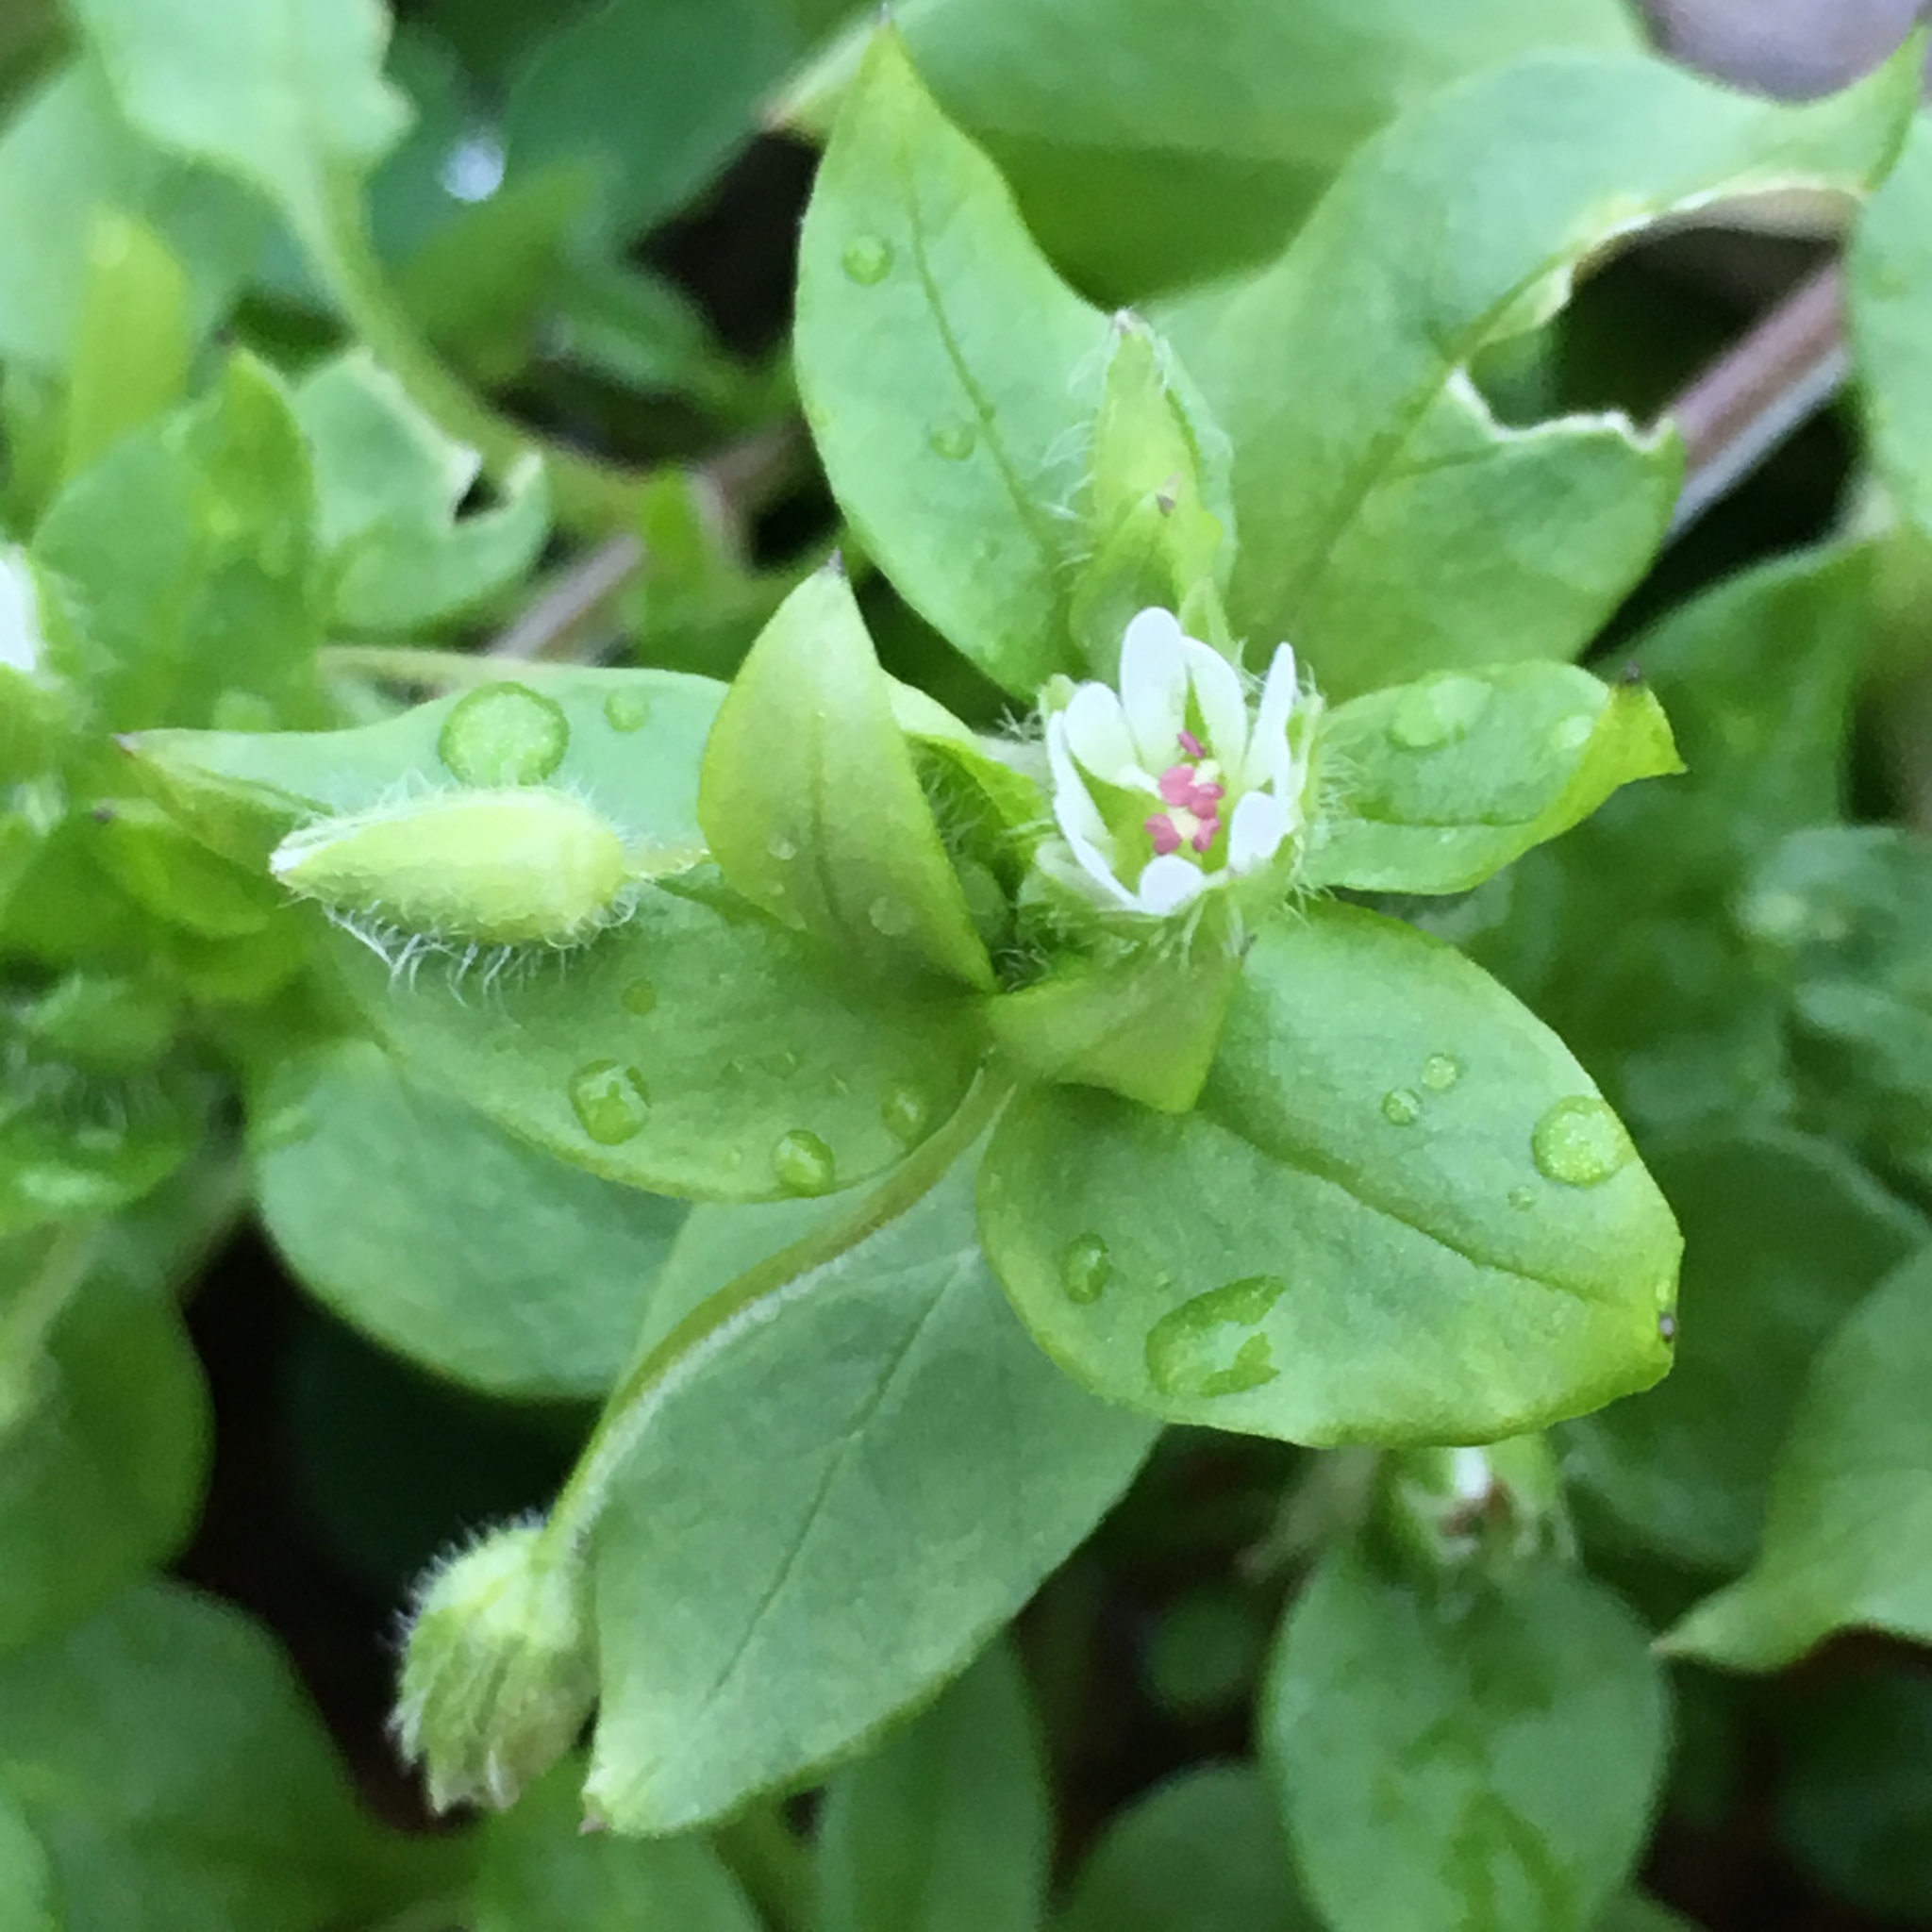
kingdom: Plantae
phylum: Tracheophyta
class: Magnoliopsida
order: Caryophyllales
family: Caryophyllaceae
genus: Stellaria
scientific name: Stellaria media
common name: Common chickweed
